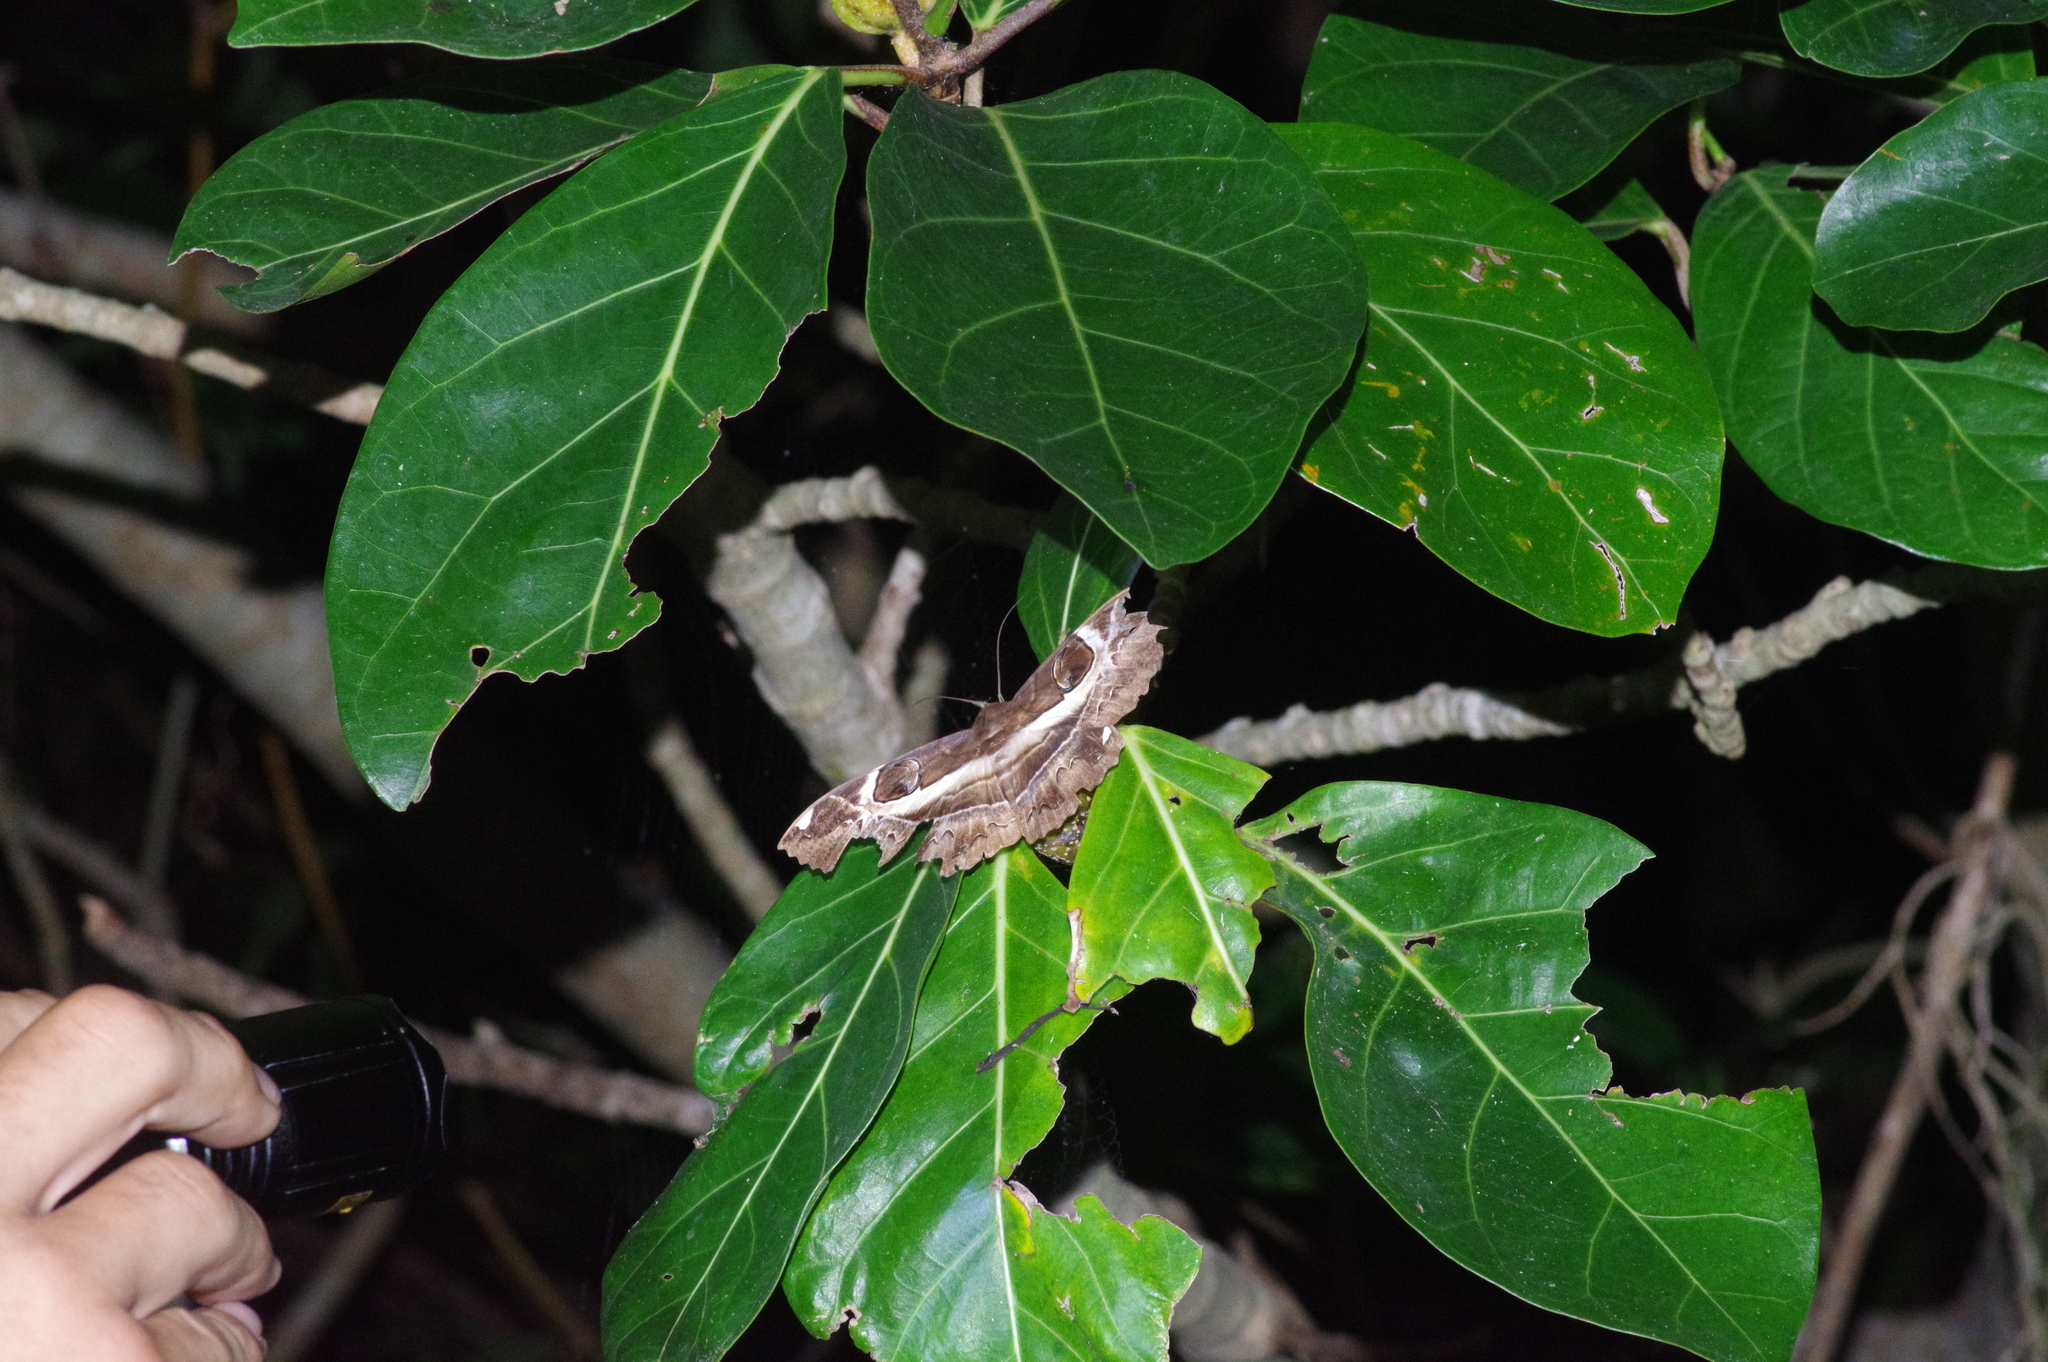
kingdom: Animalia
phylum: Arthropoda
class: Insecta
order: Lepidoptera
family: Erebidae
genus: Erebus
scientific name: Erebus ephesperis
